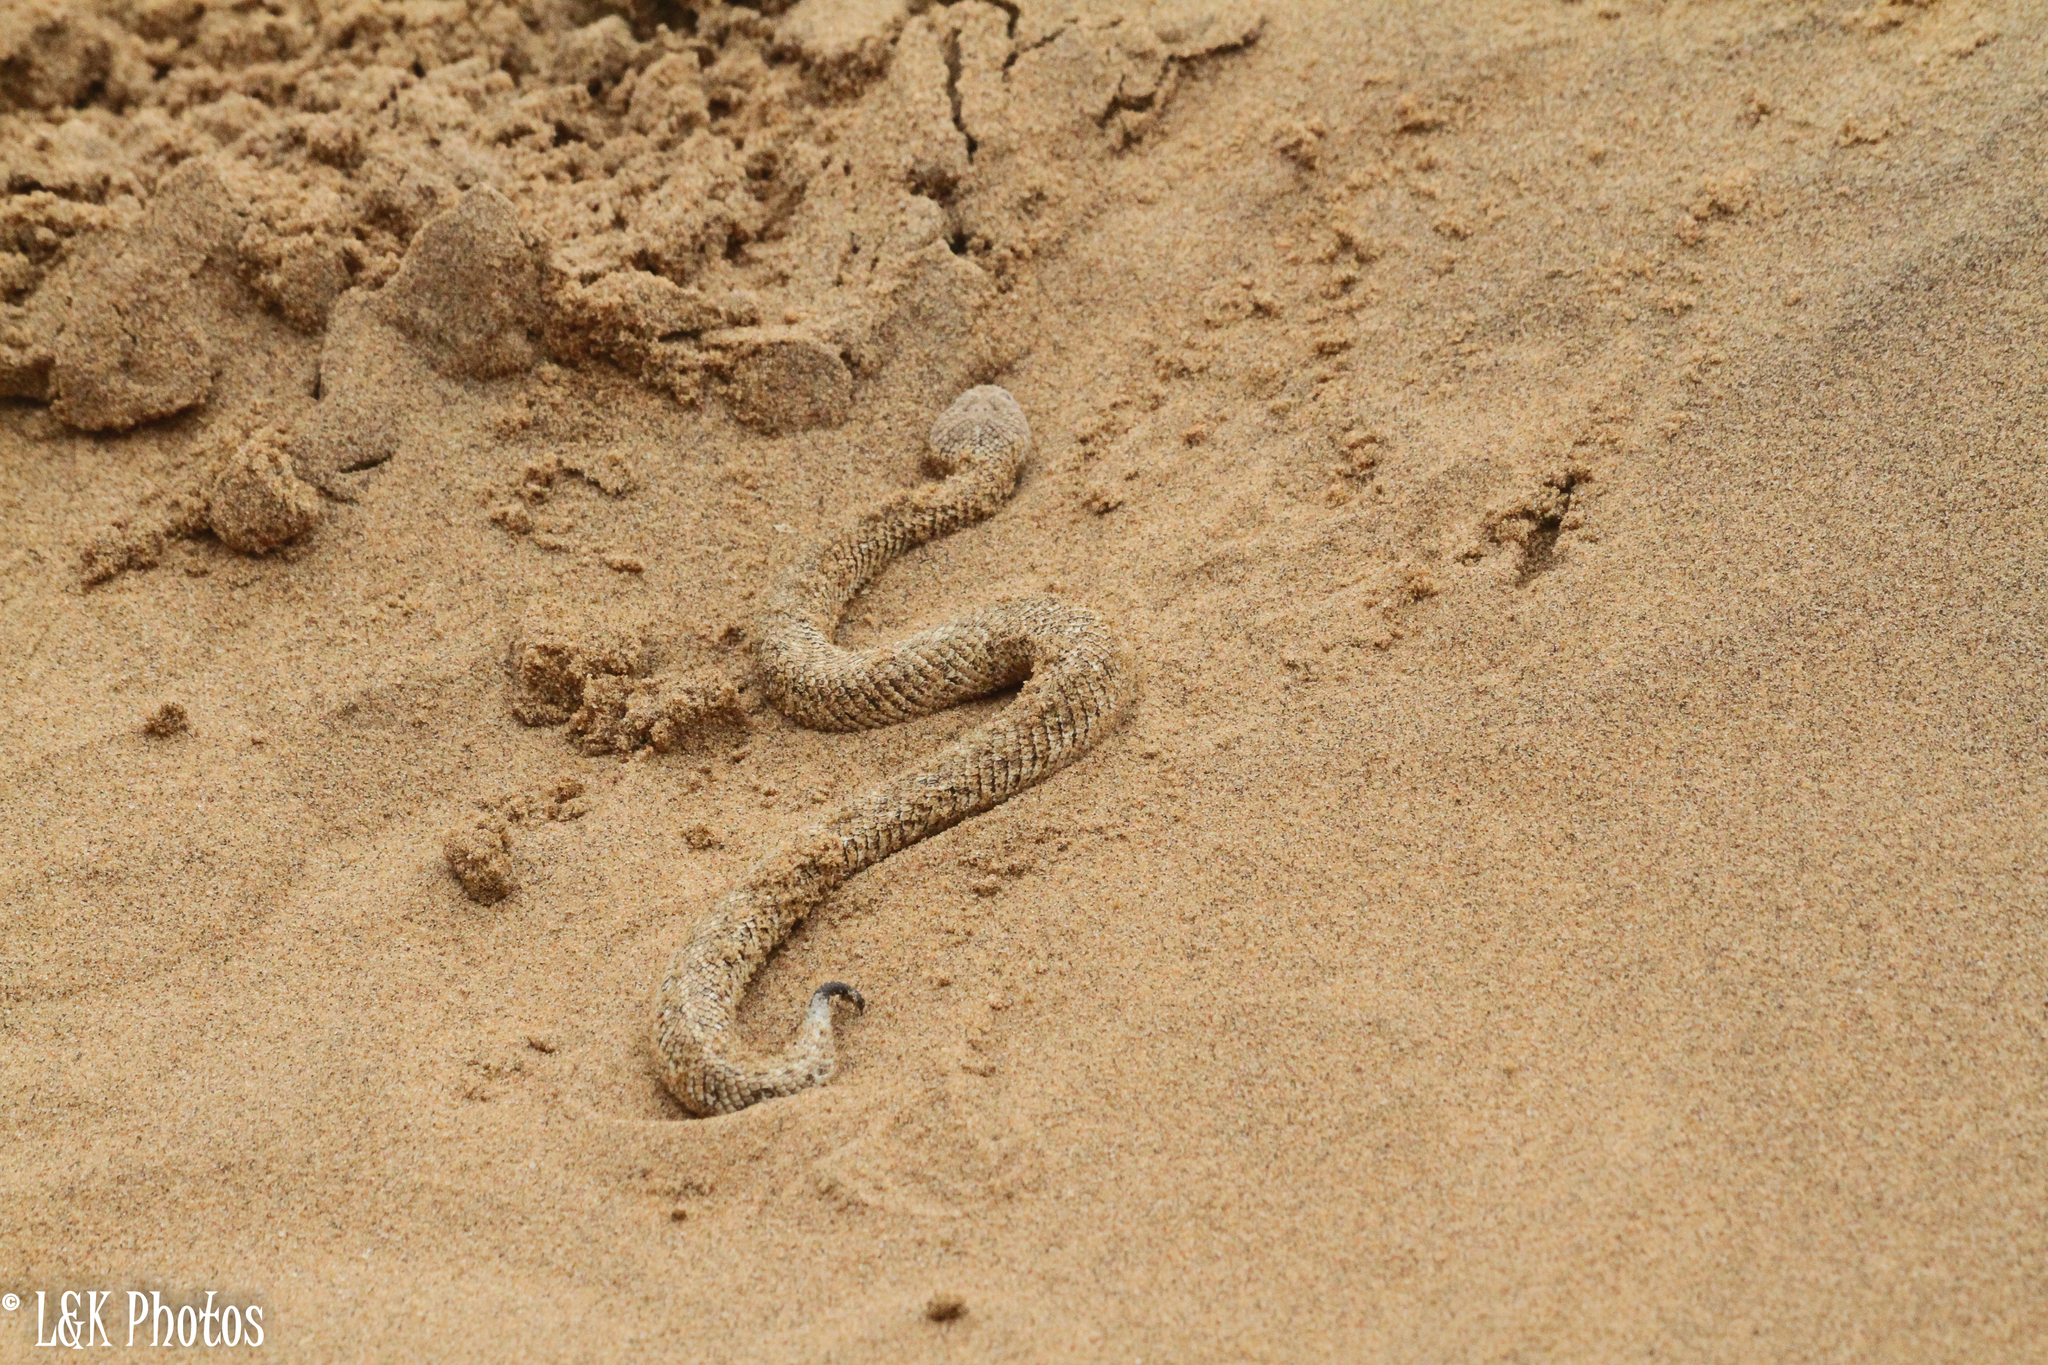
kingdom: Animalia
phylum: Chordata
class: Squamata
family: Viperidae
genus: Bitis
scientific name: Bitis peringueyi
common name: Dwarf puff adder
